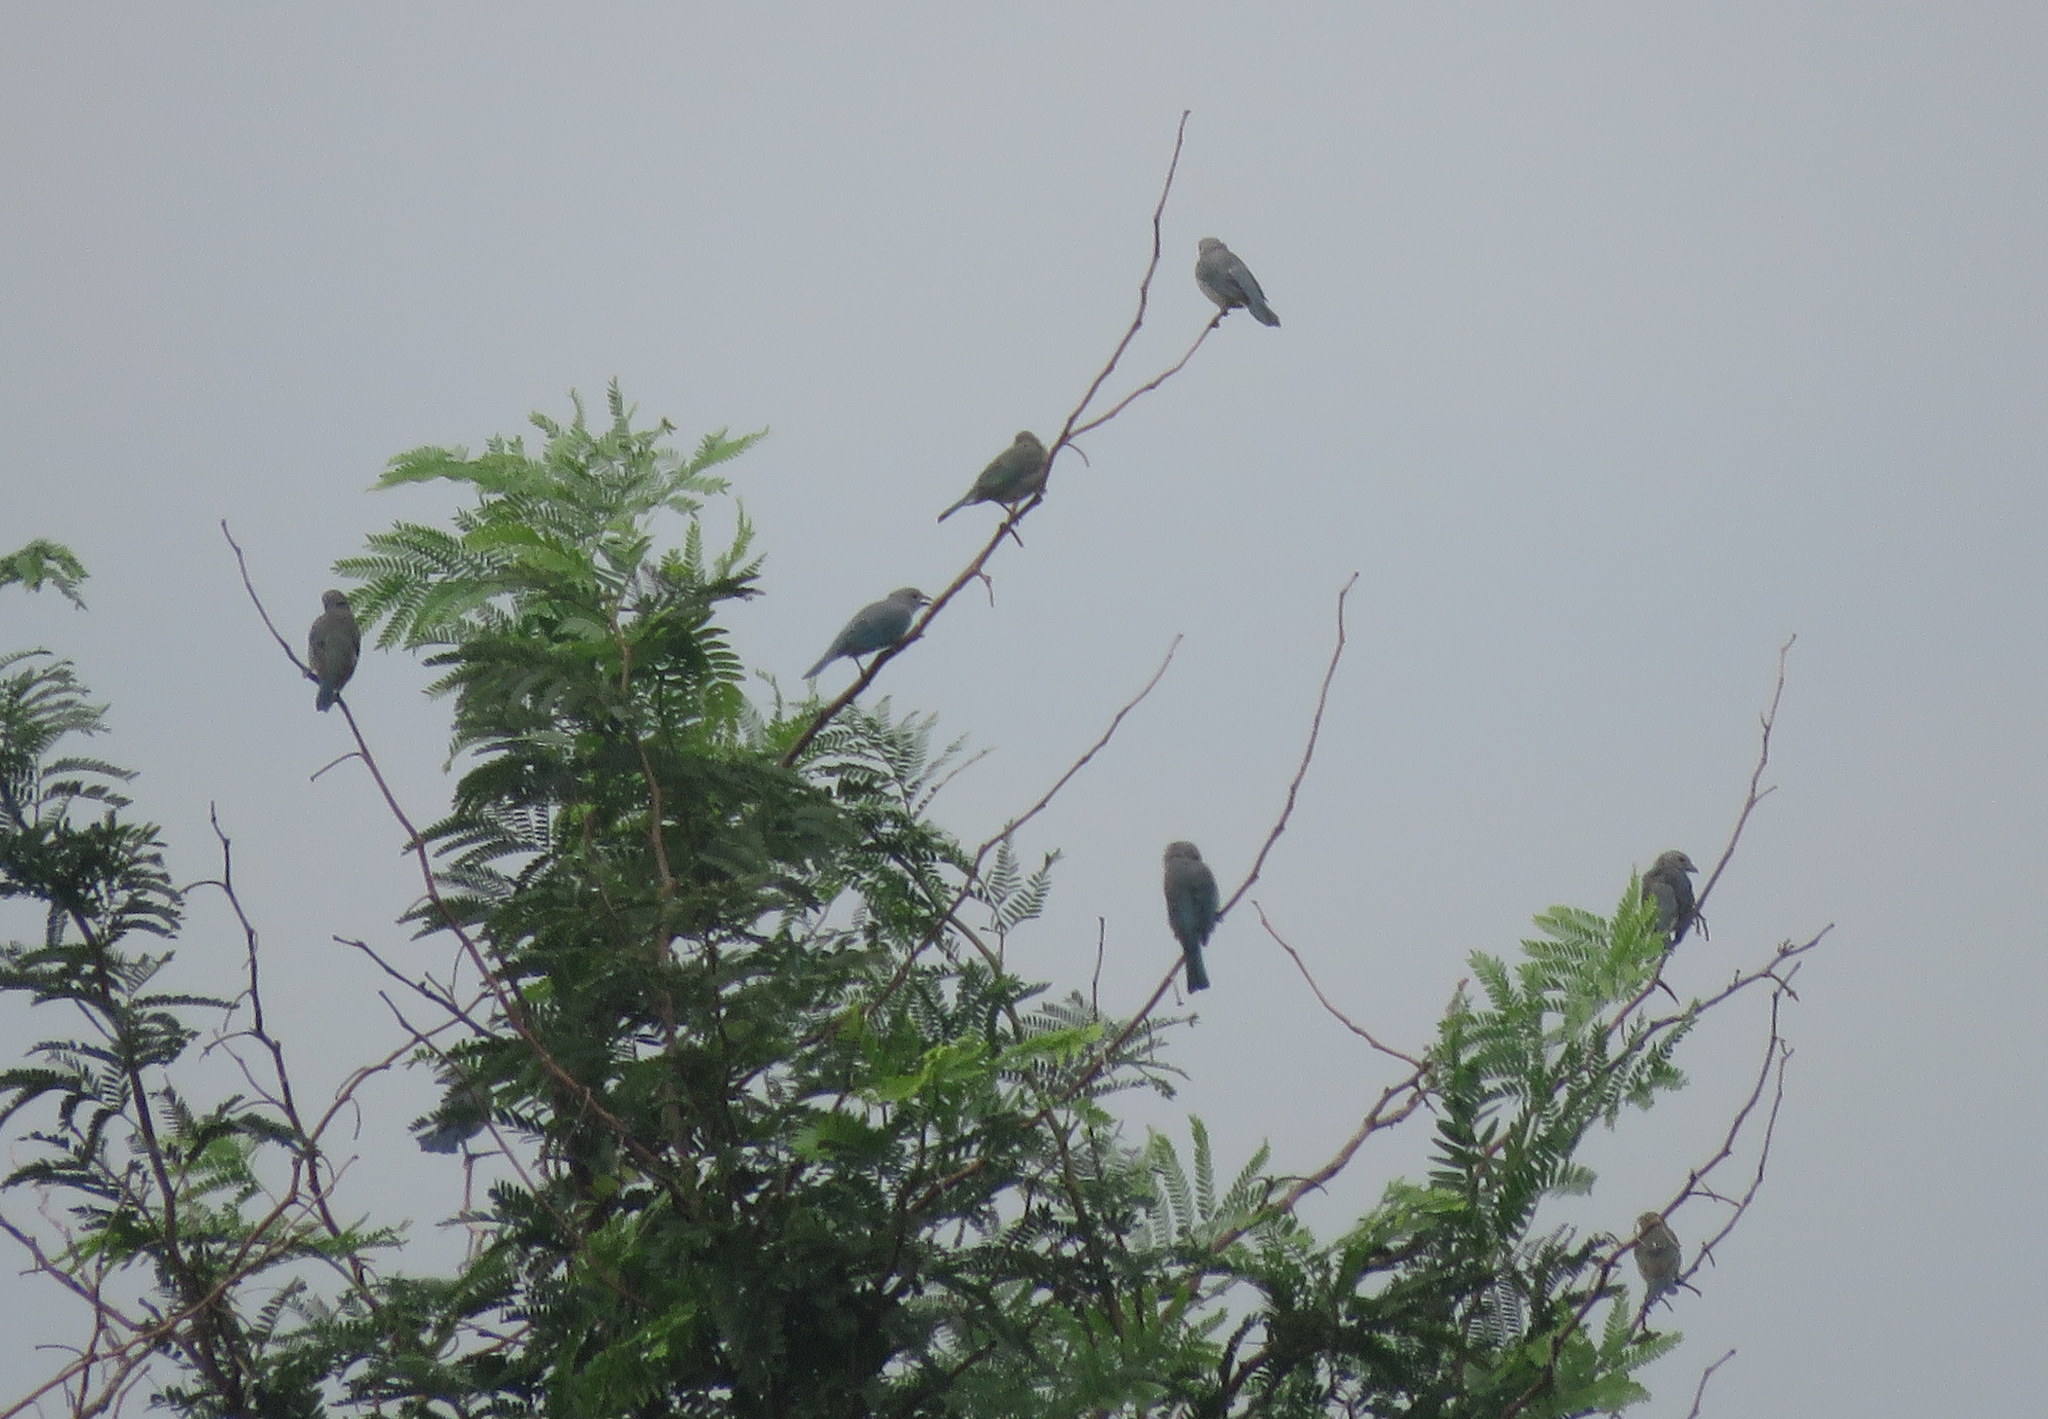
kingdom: Animalia
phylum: Chordata
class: Aves
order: Passeriformes
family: Thraupidae
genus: Thraupis
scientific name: Thraupis sayaca
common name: Sayaca tanager
